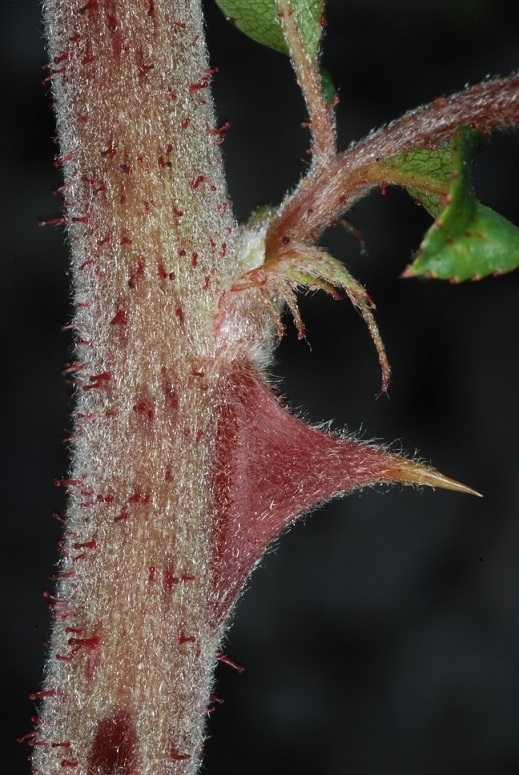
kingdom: Plantae
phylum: Tracheophyta
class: Magnoliopsida
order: Rosales
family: Rosaceae
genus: Rosa
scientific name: Rosa bracteata
